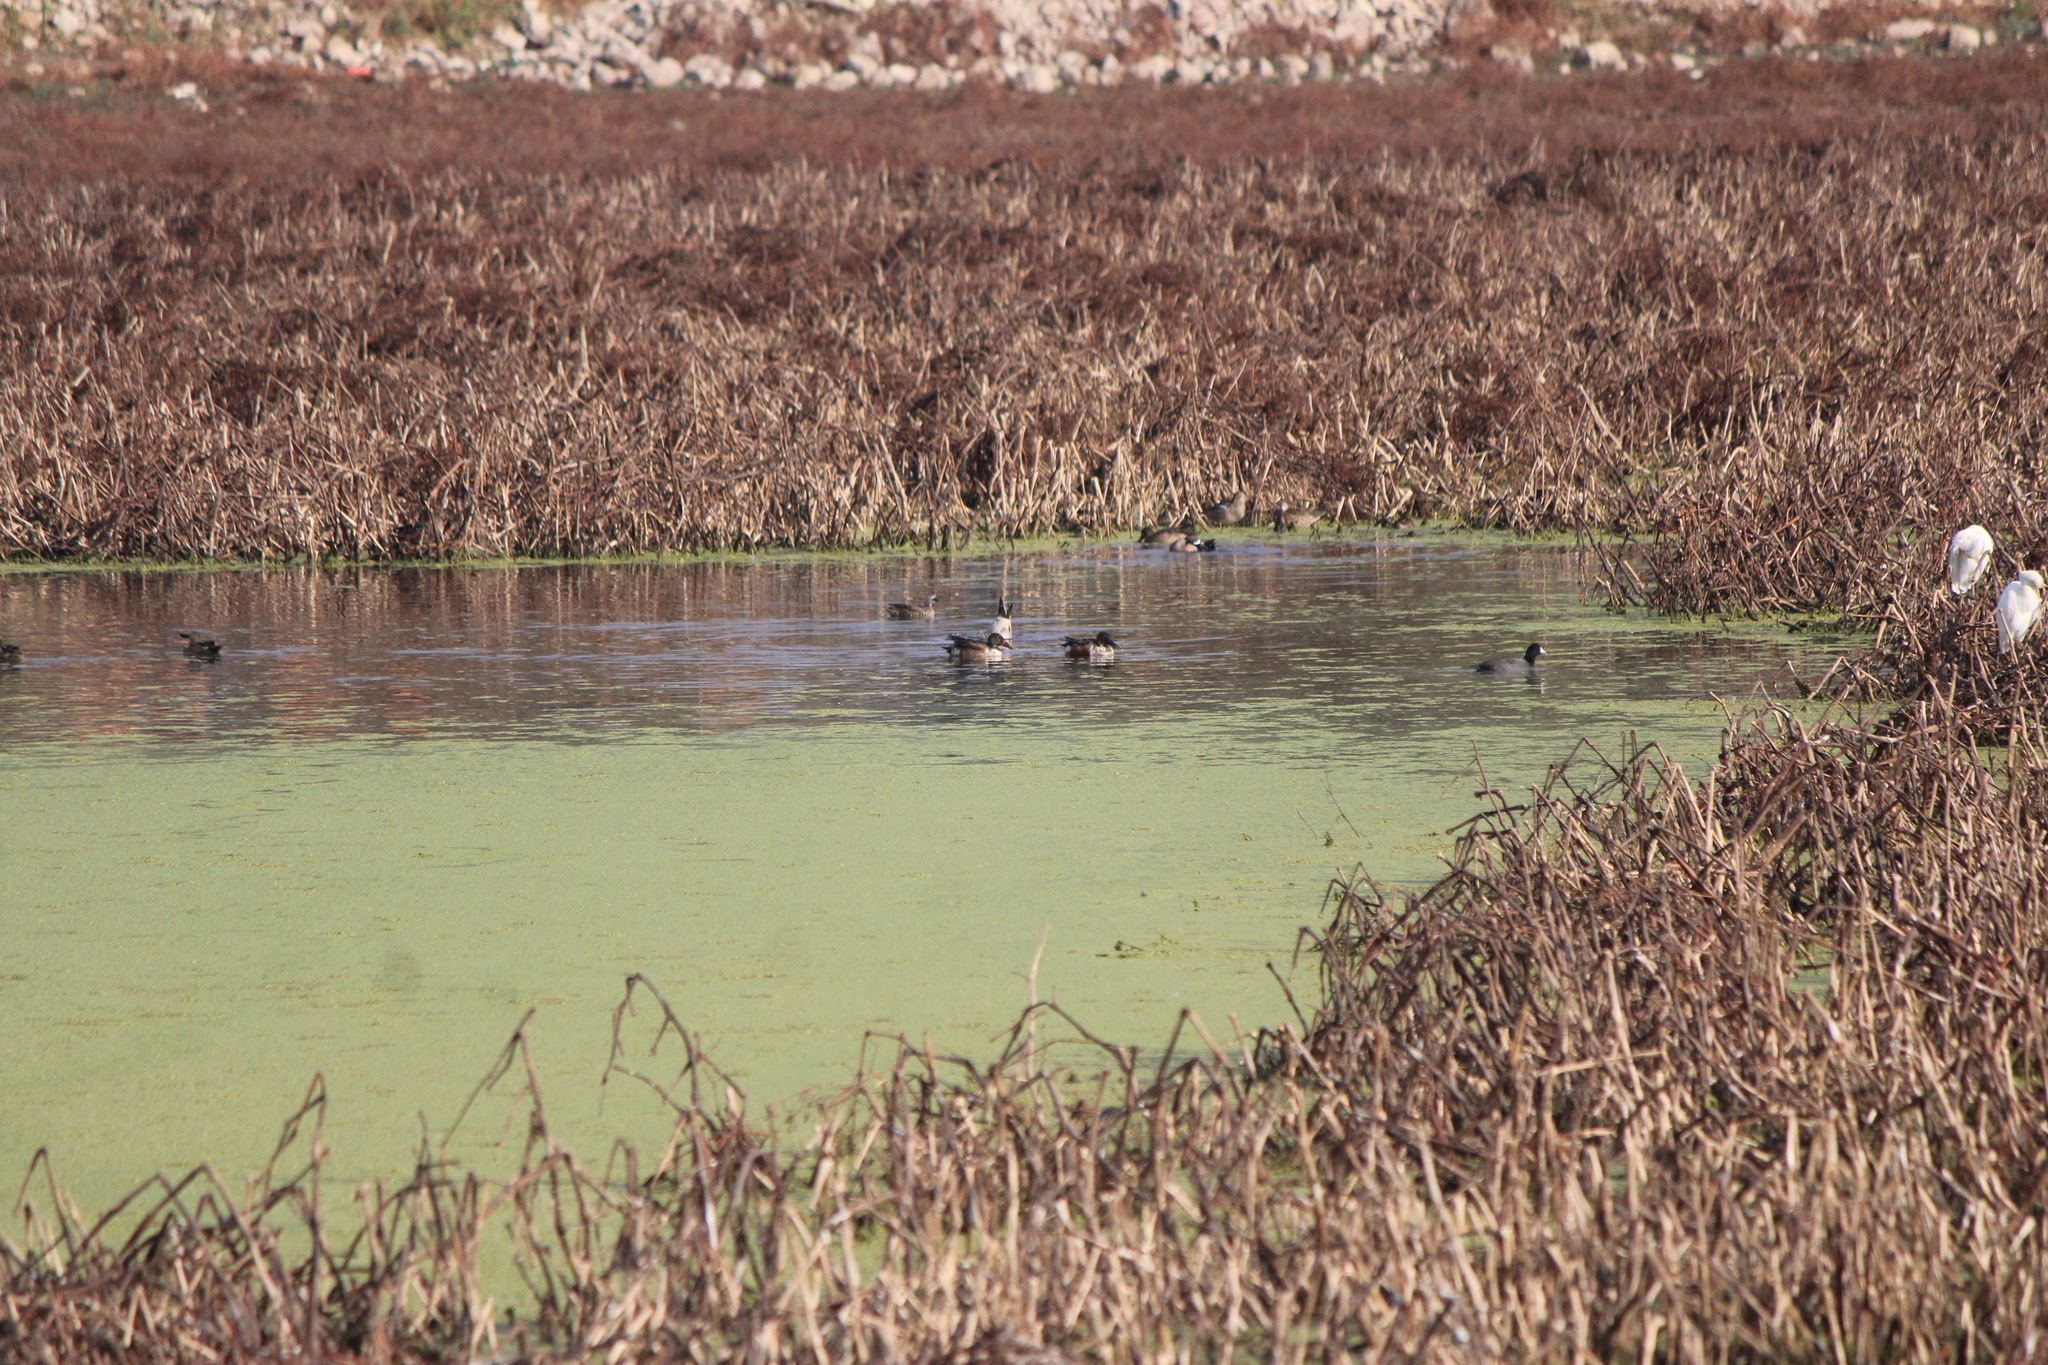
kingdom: Animalia
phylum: Chordata
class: Aves
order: Anseriformes
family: Anatidae
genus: Spatula
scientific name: Spatula clypeata
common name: Northern shoveler
